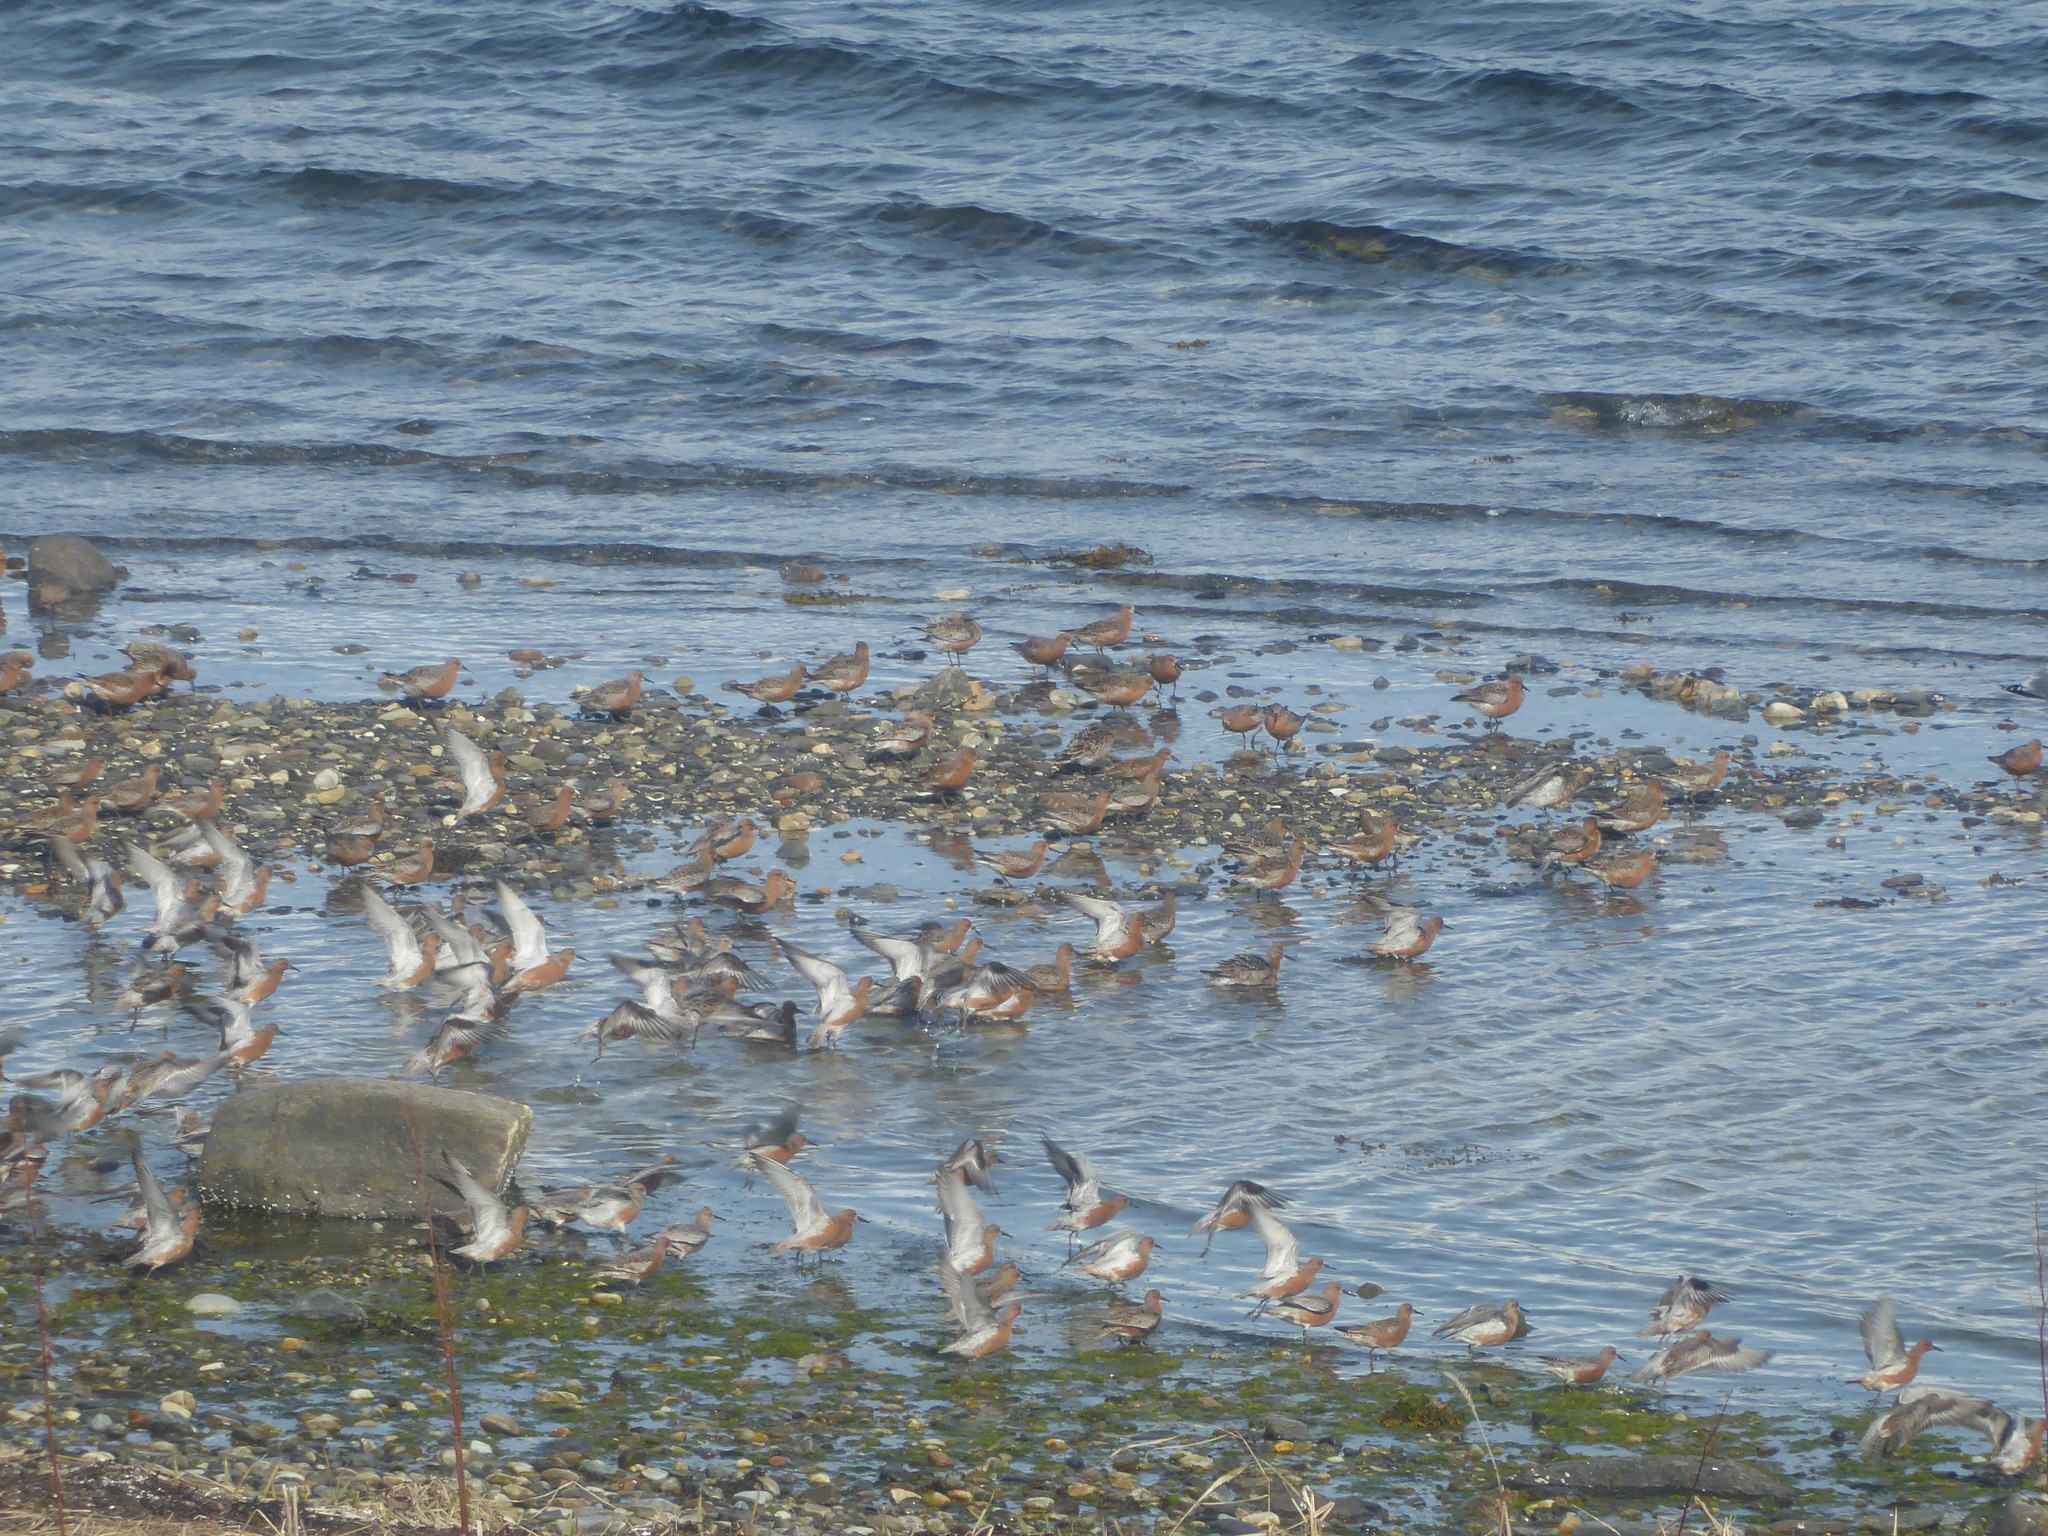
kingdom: Animalia
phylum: Chordata
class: Aves
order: Charadriiformes
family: Scolopacidae
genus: Calidris
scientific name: Calidris canutus
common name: Red knot
